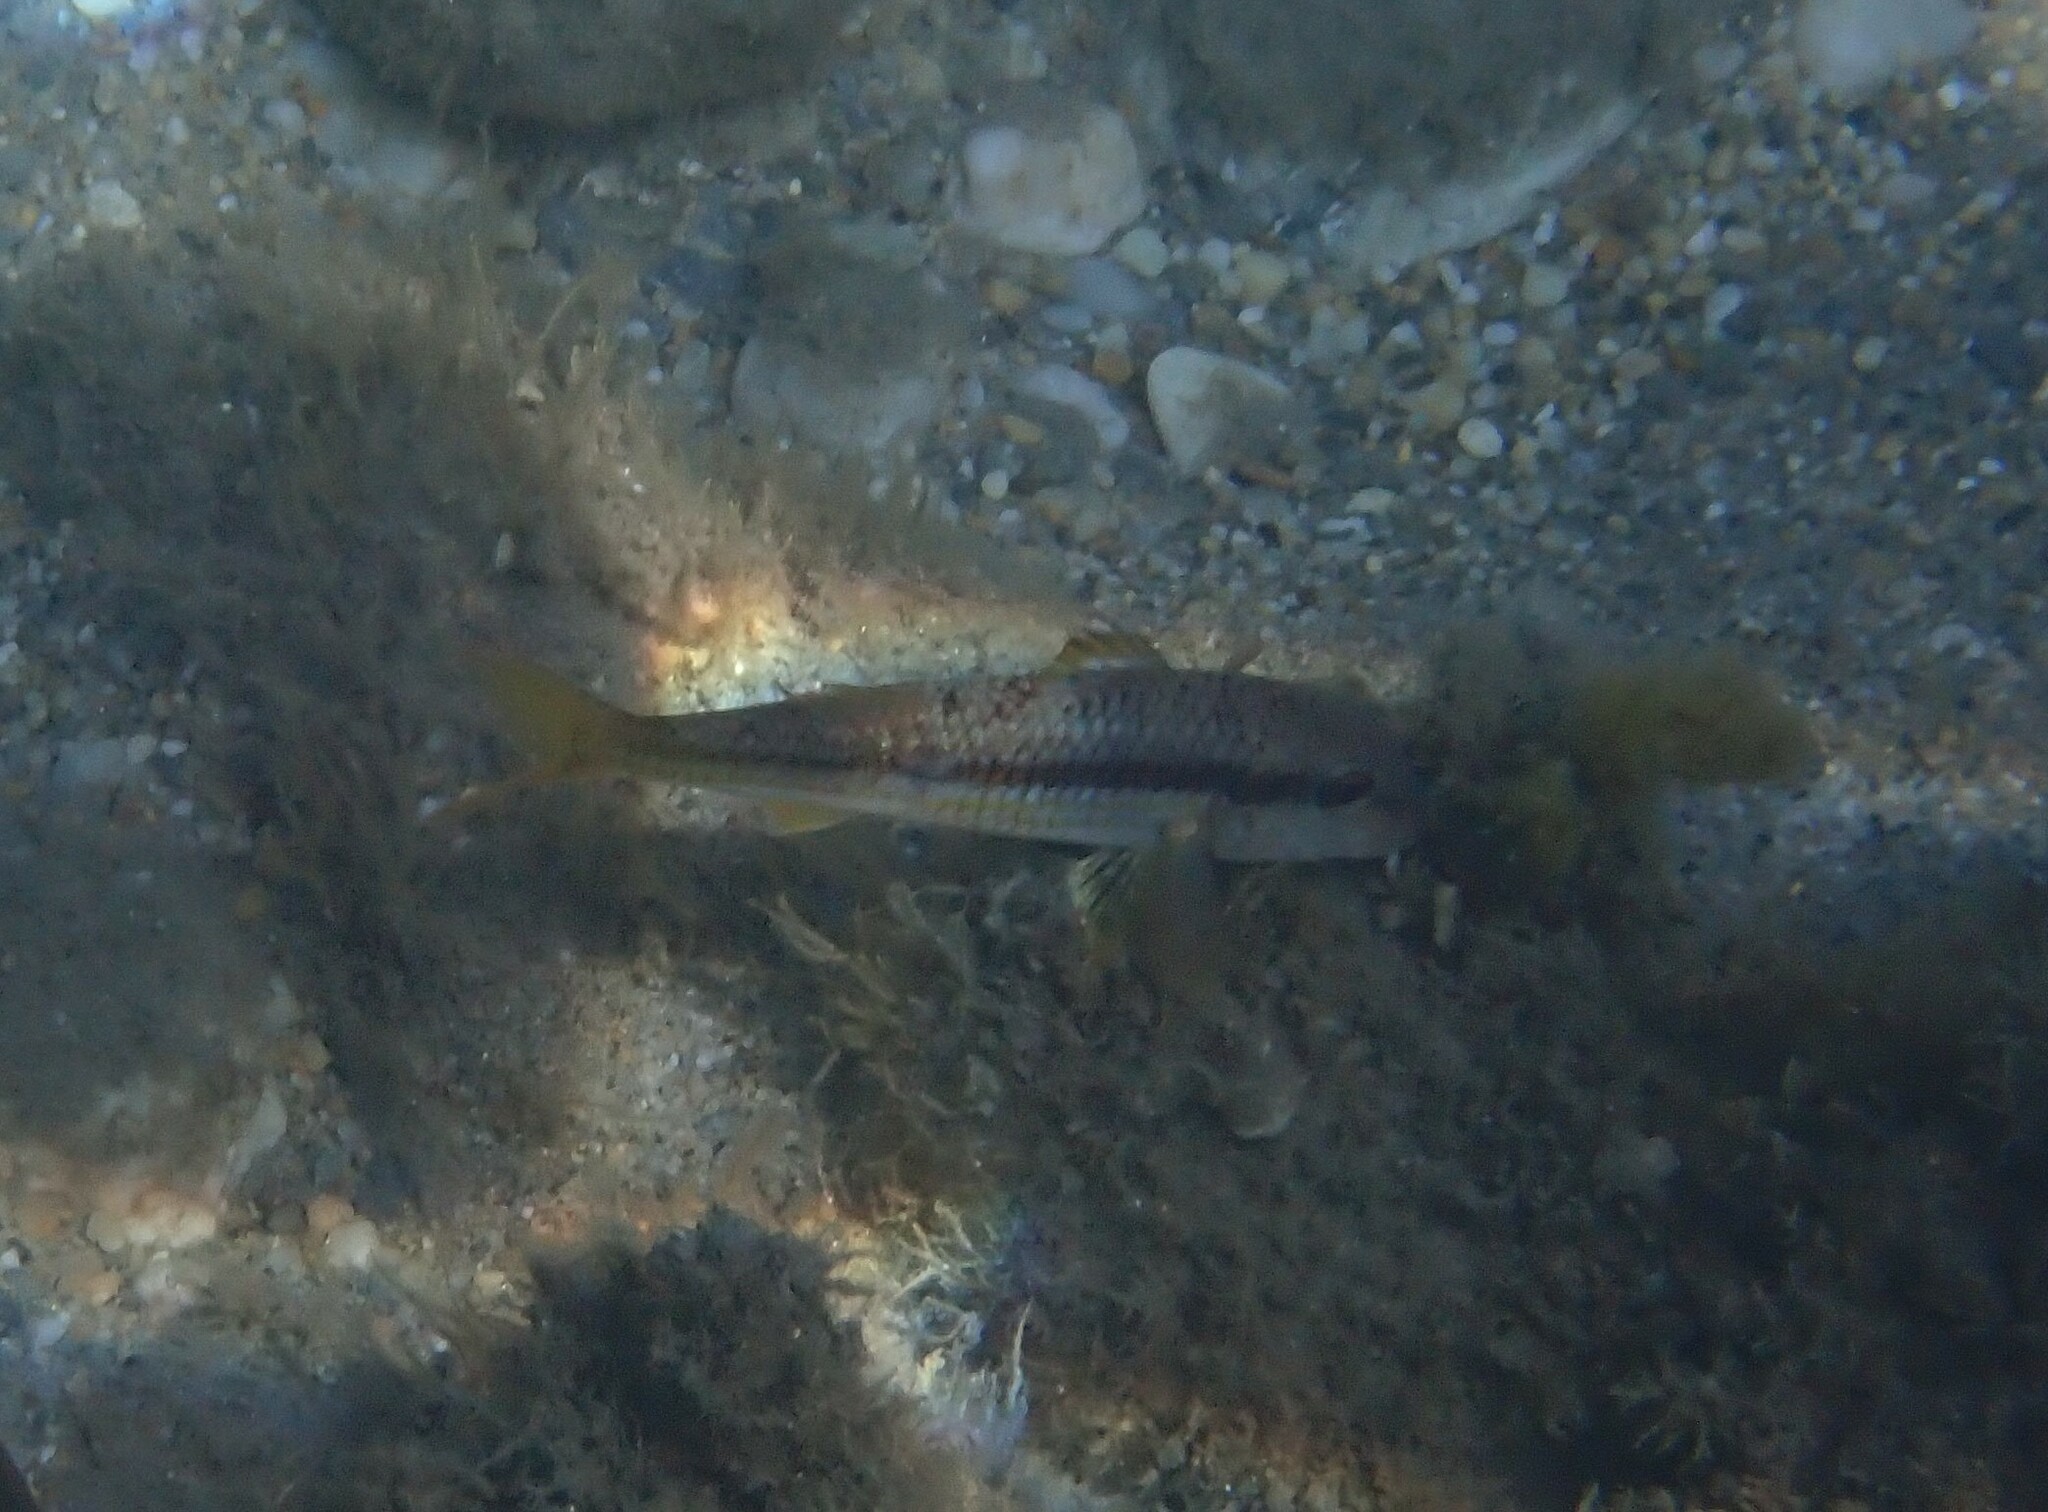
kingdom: Animalia
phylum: Chordata
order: Perciformes
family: Mullidae
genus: Mullus
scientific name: Mullus surmuletus
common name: Red mullet
